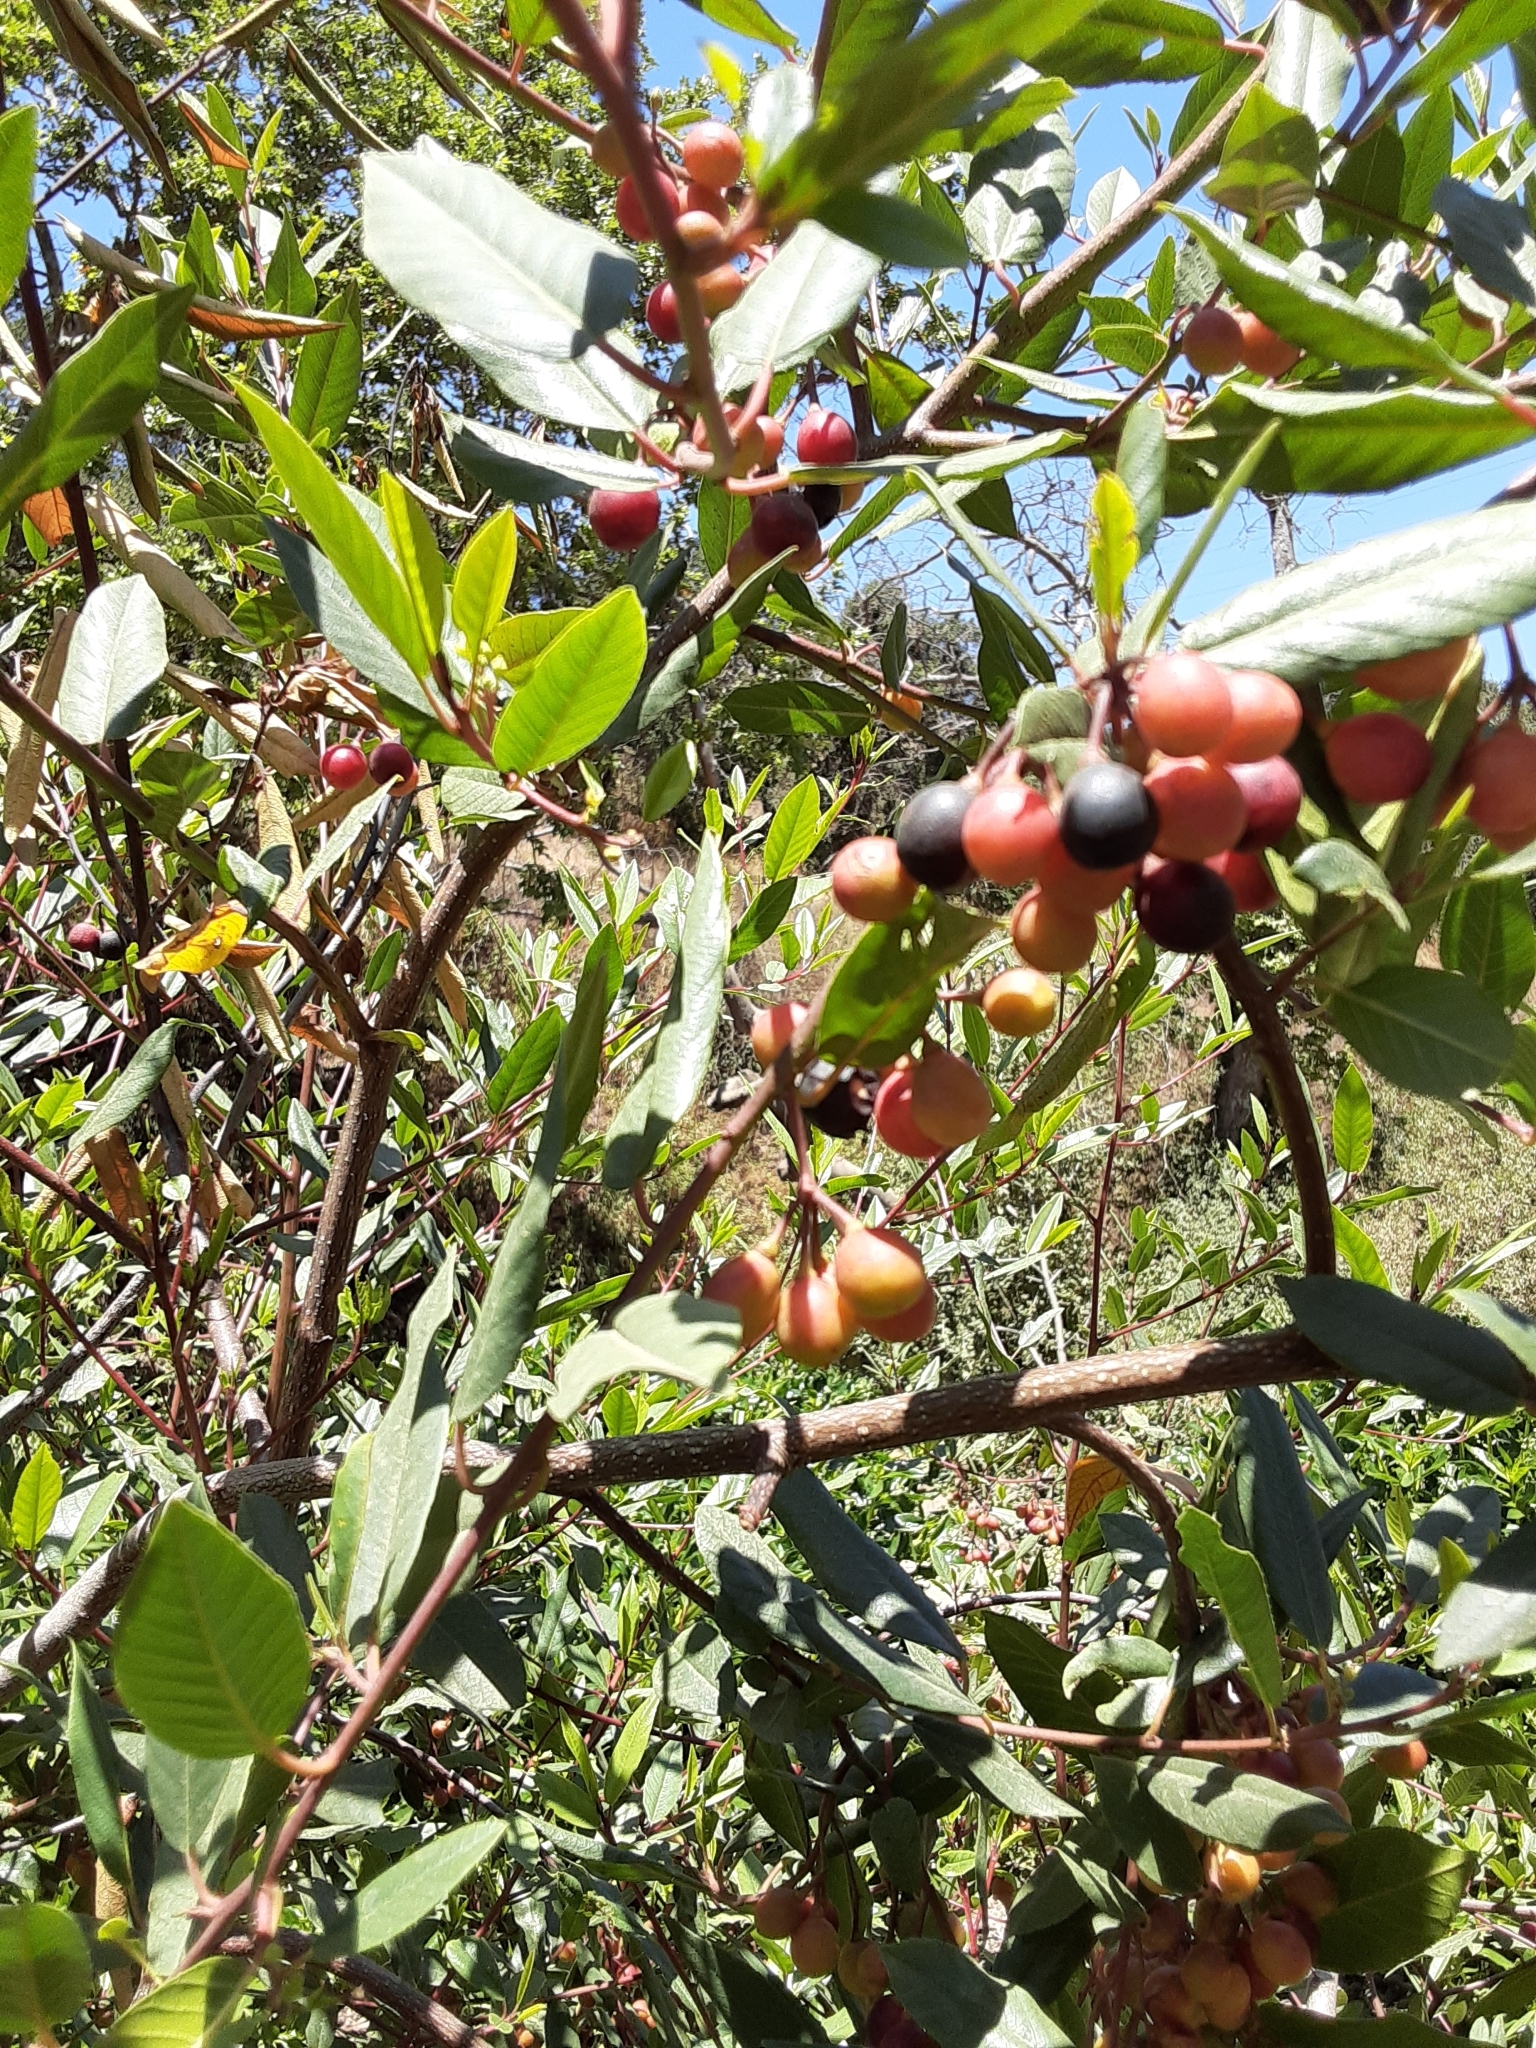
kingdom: Plantae
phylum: Tracheophyta
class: Magnoliopsida
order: Rosales
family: Rhamnaceae
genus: Frangula
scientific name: Frangula californica
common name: California buckthorn
